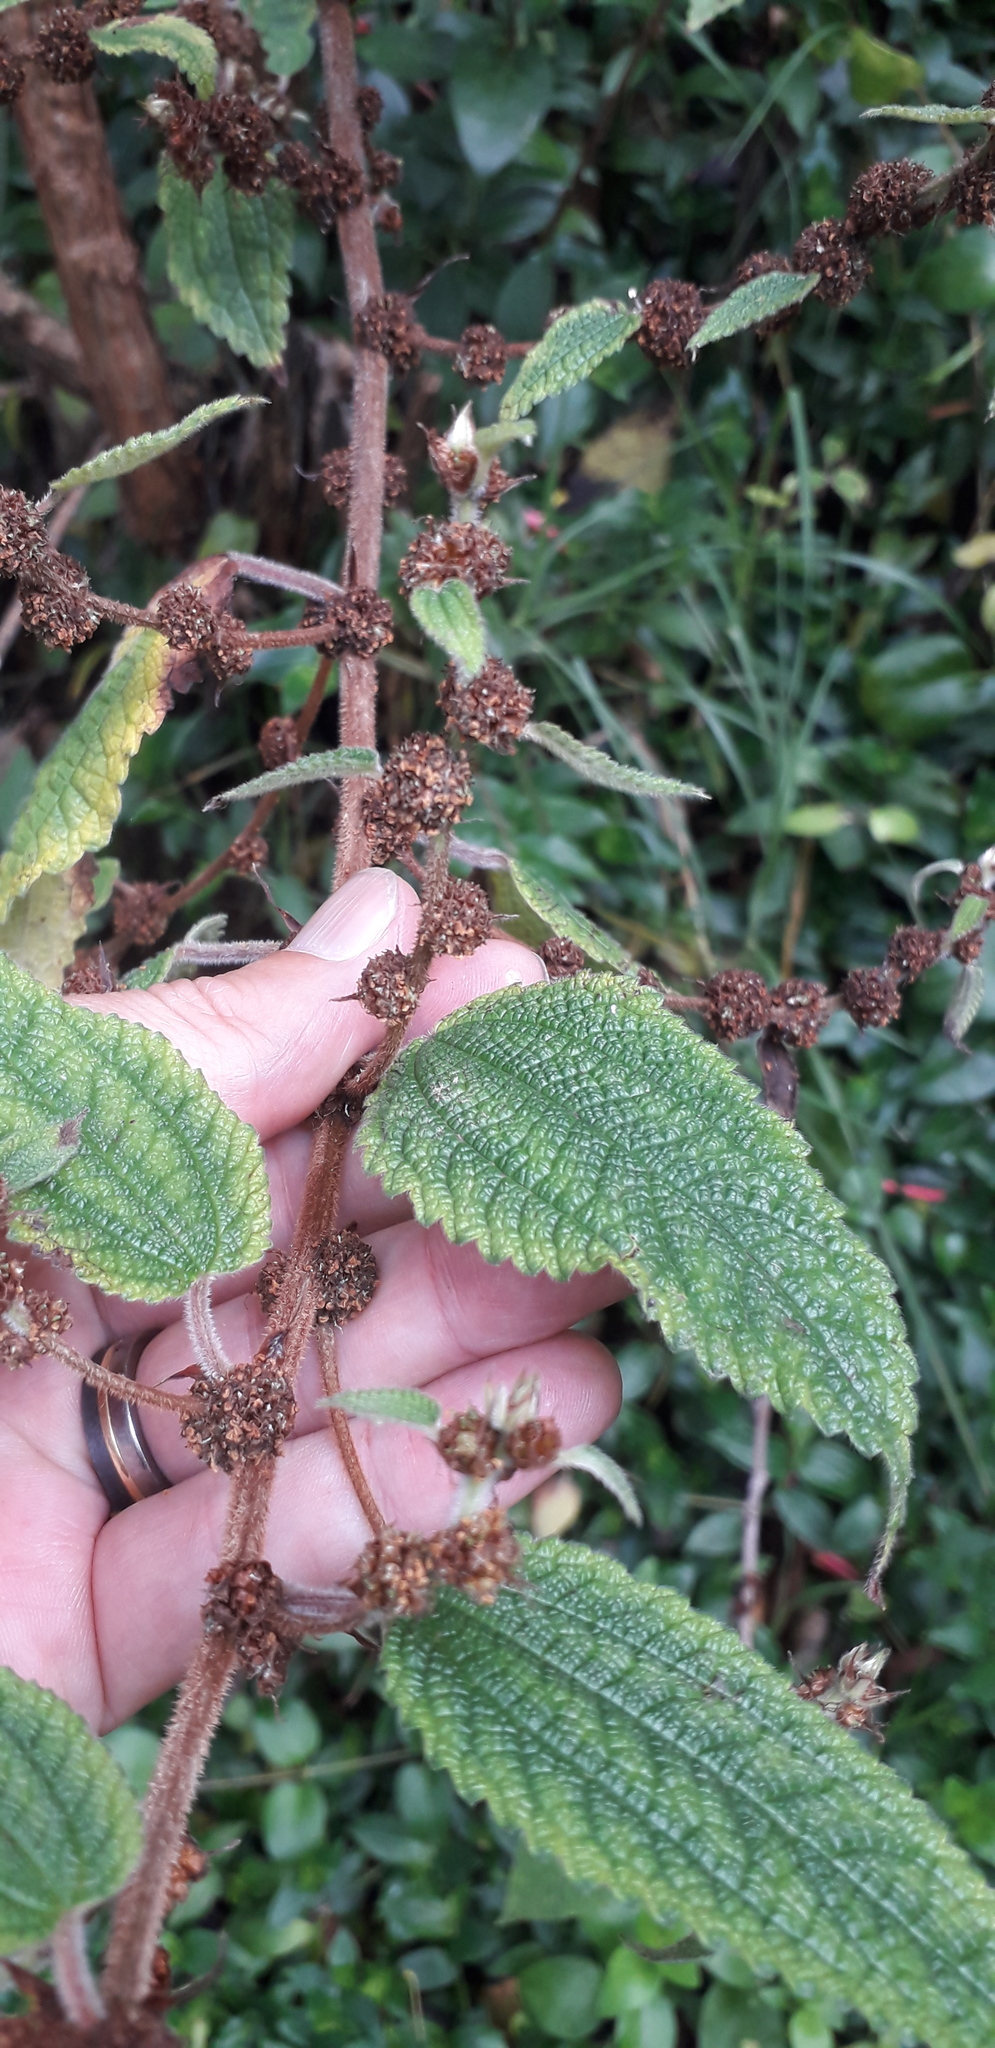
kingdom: Plantae
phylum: Tracheophyta
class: Magnoliopsida
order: Rosales
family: Urticaceae
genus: Phenax
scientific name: Phenax rugosus
